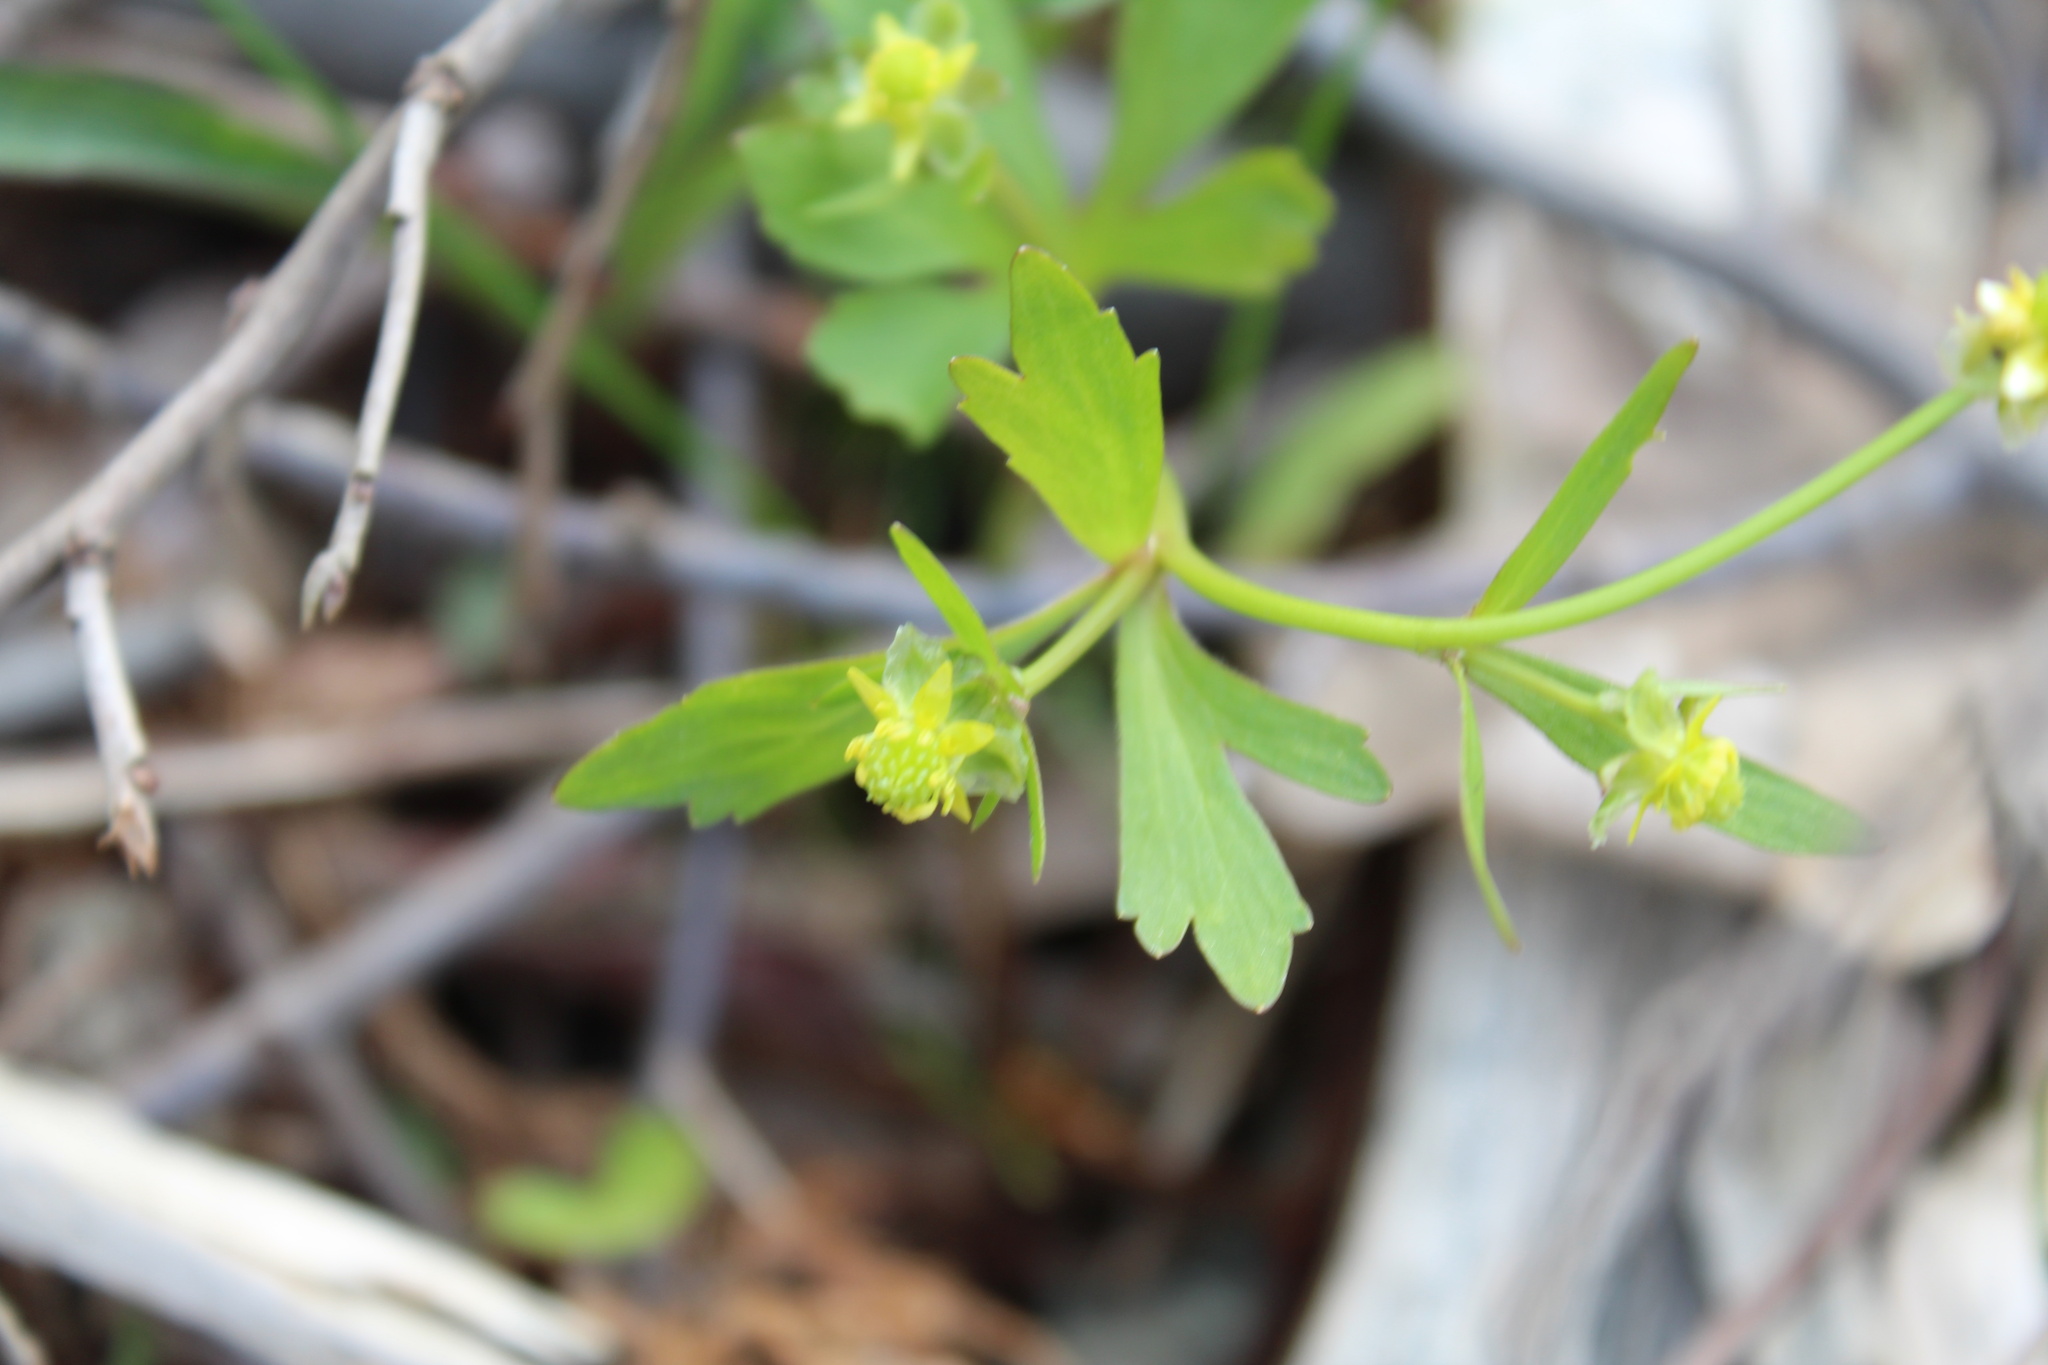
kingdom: Plantae
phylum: Tracheophyta
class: Magnoliopsida
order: Ranunculales
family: Ranunculaceae
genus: Ranunculus
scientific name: Ranunculus abortivus
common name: Early wood buttercup
